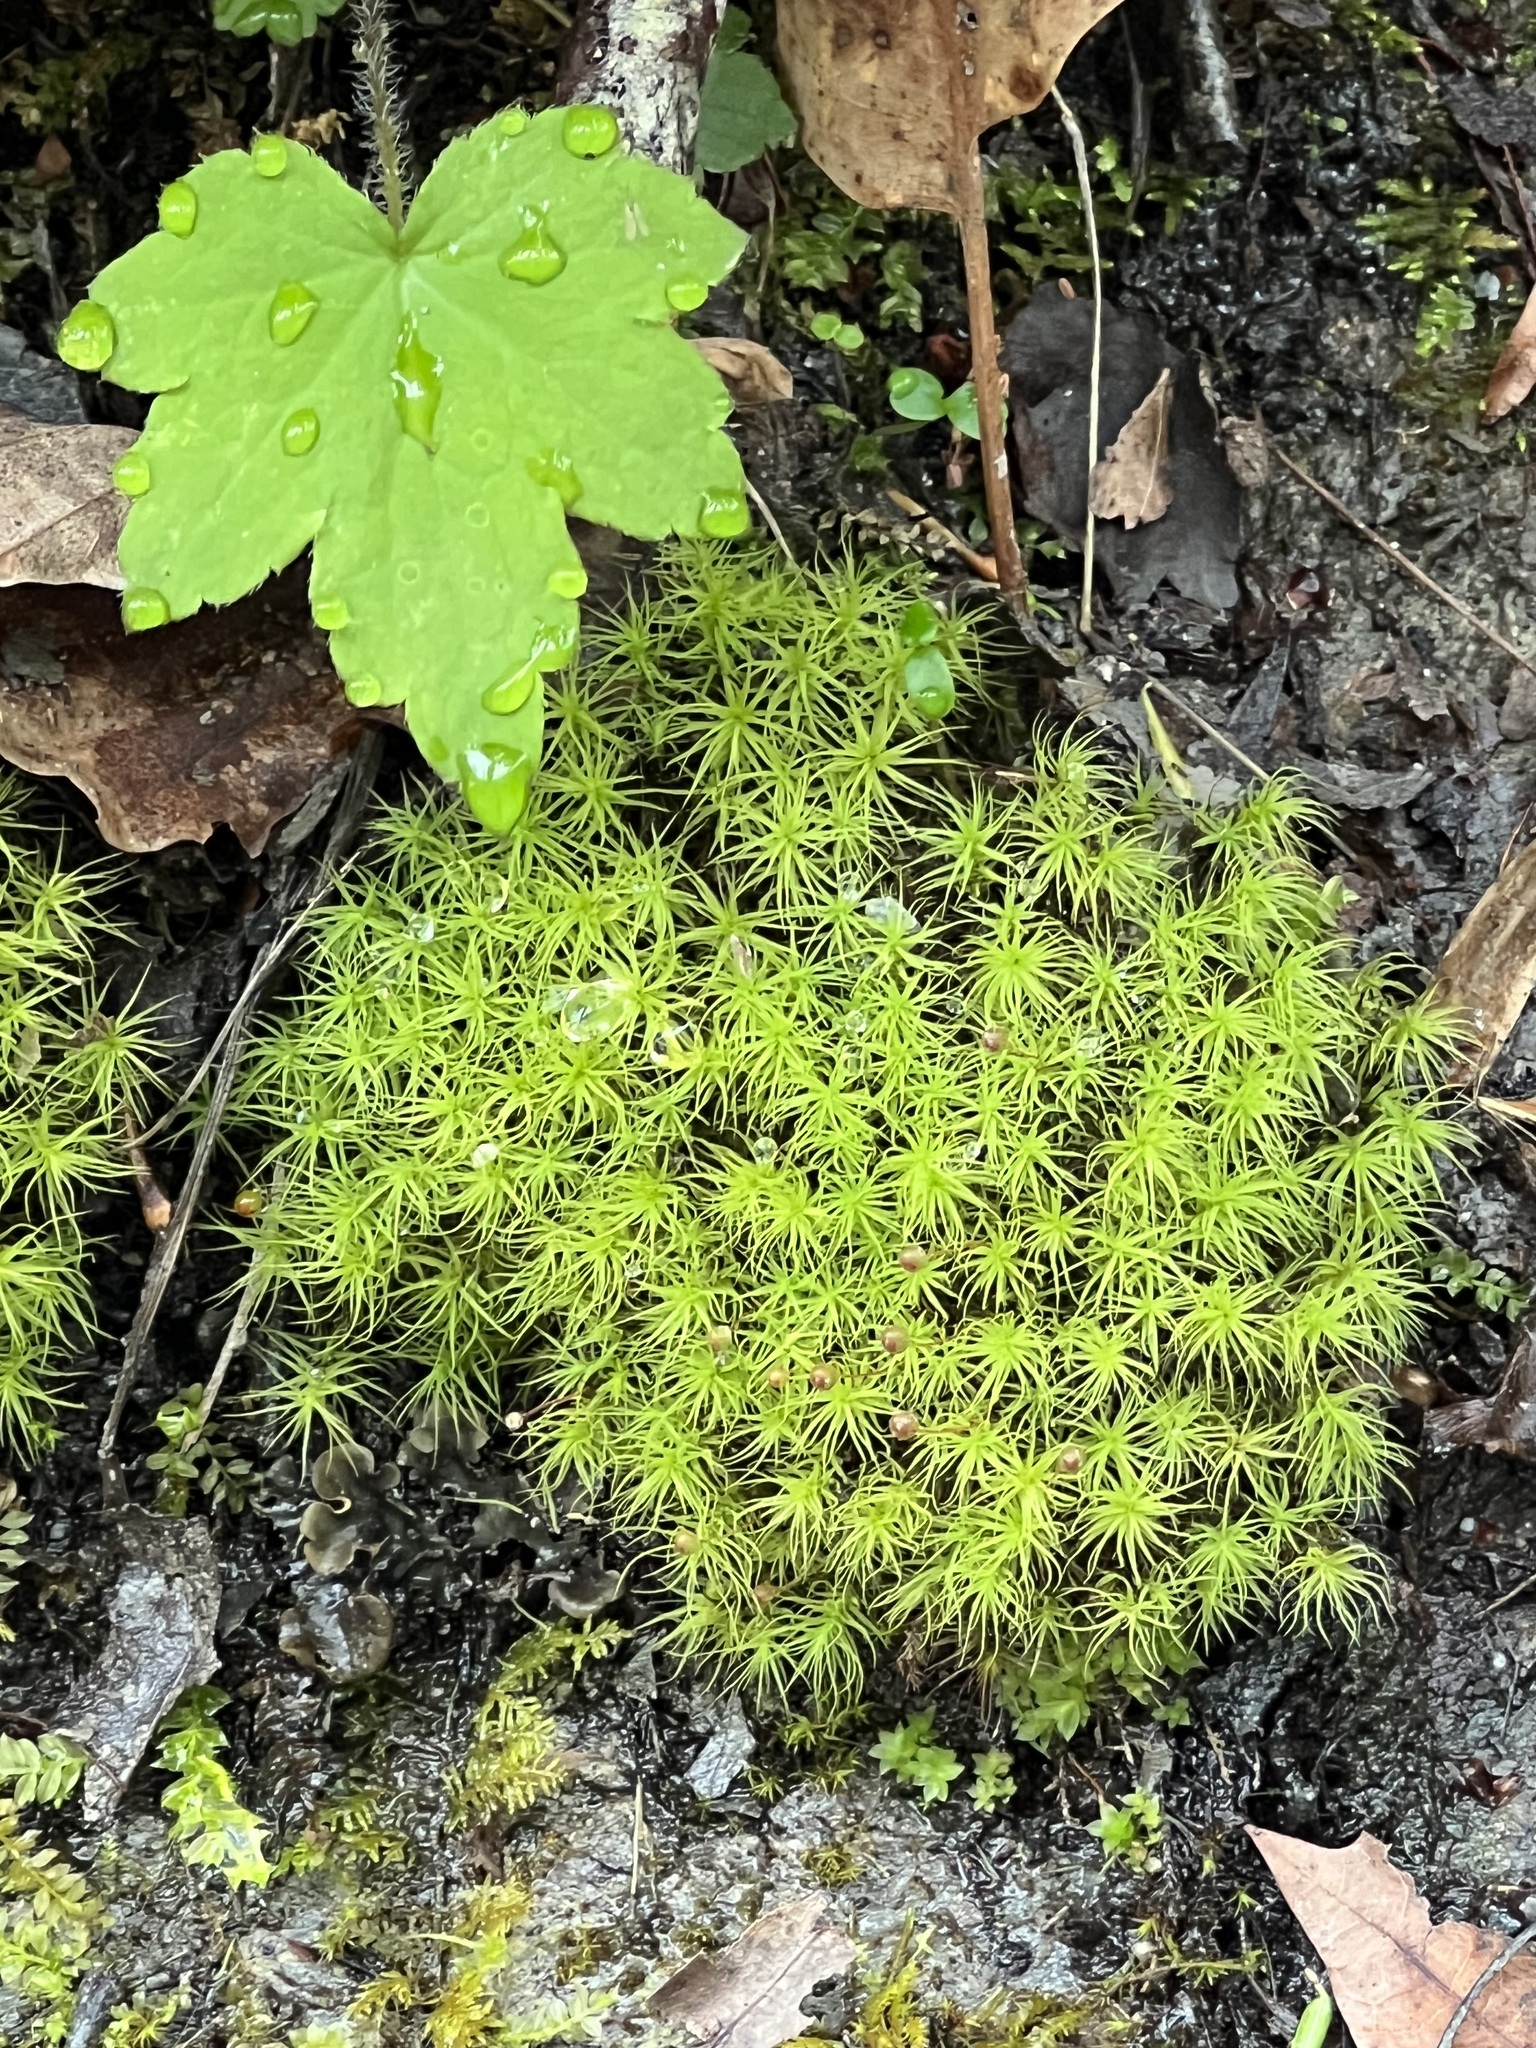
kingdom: Plantae
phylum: Bryophyta
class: Bryopsida
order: Bartramiales
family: Bartramiaceae
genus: Bartramia
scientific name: Bartramia ithyphylla
